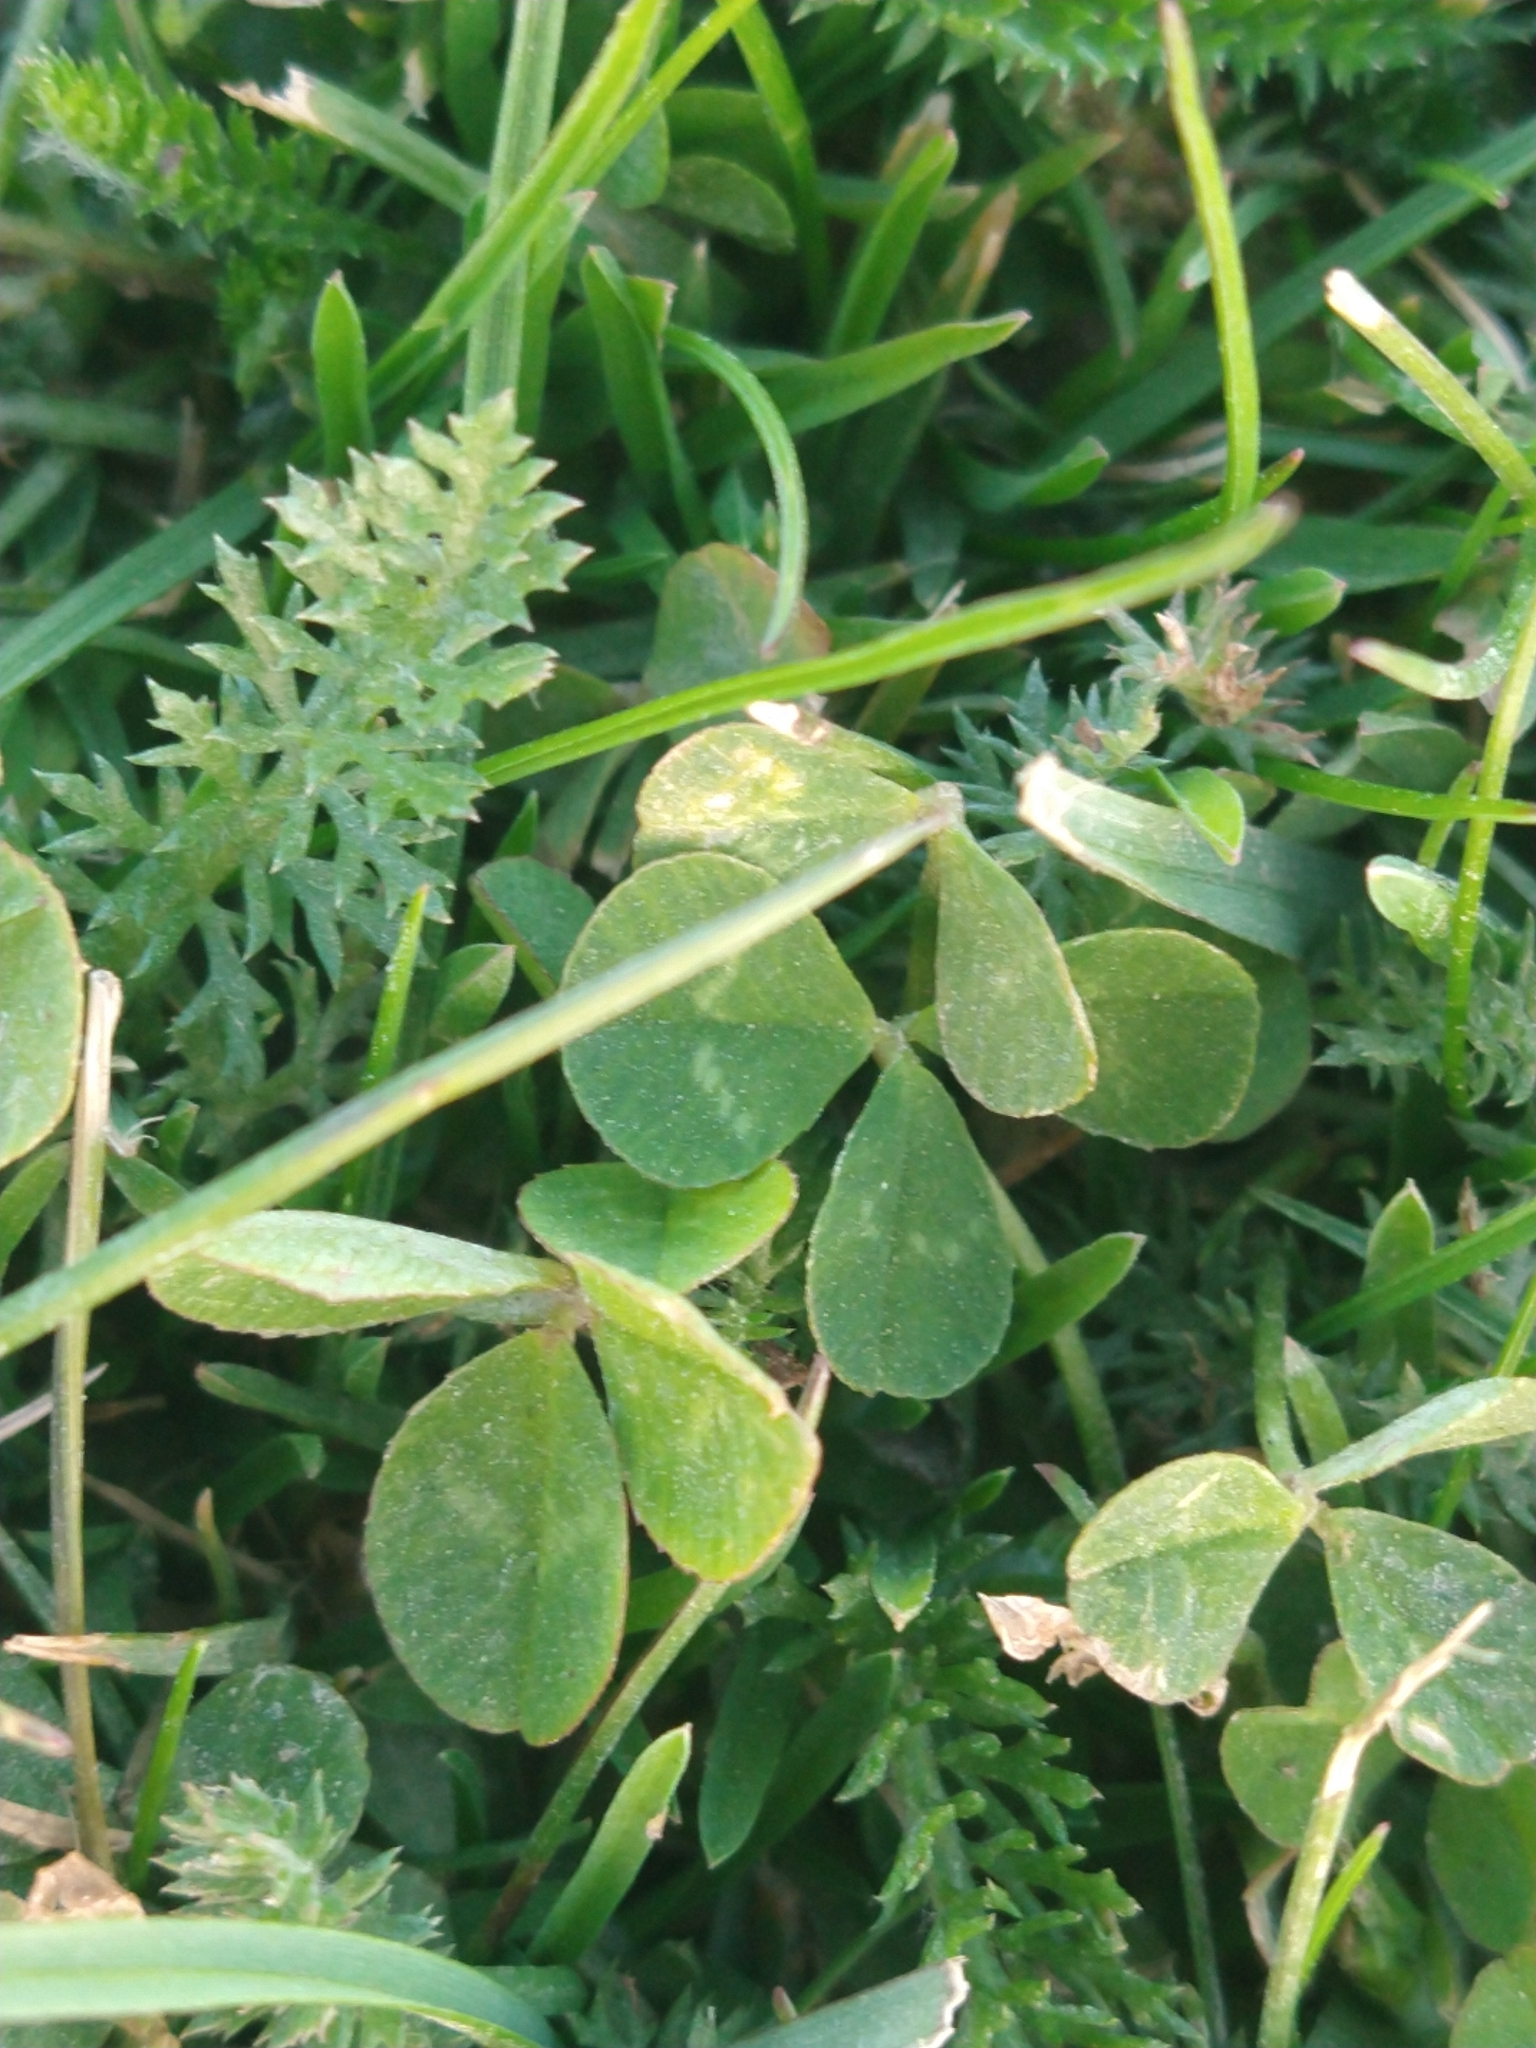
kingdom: Plantae
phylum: Tracheophyta
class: Magnoliopsida
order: Fabales
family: Fabaceae
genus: Trifolium
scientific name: Trifolium repens
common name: White clover
